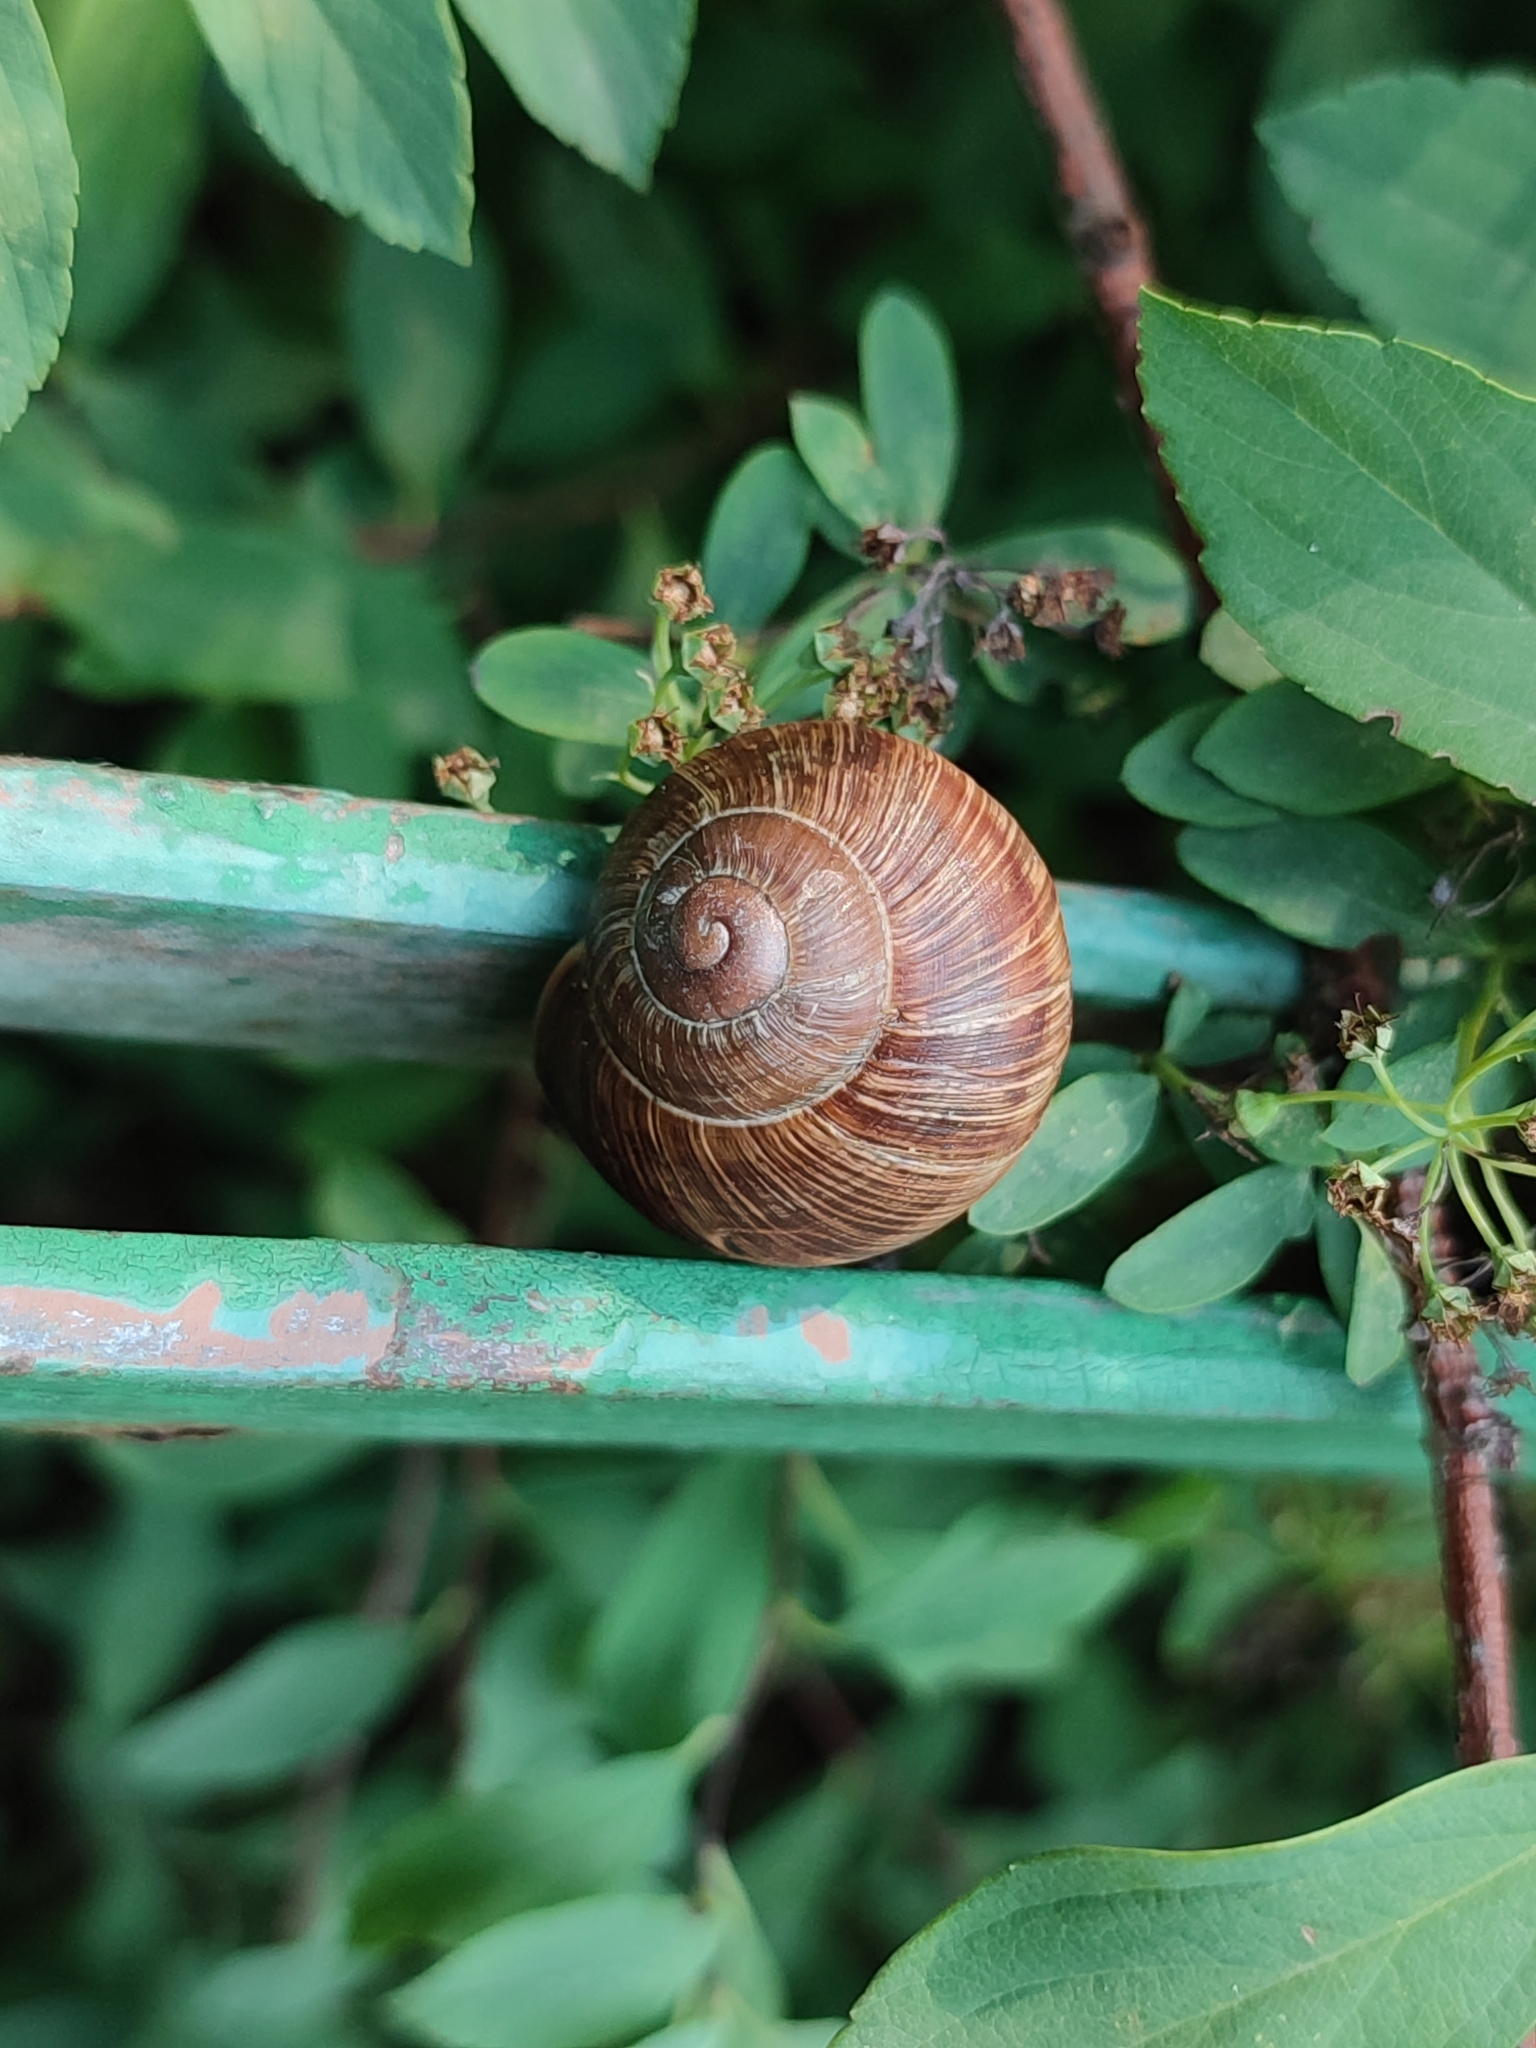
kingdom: Animalia
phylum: Mollusca
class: Gastropoda
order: Stylommatophora
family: Helicidae
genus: Helix
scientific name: Helix pomatia
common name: Roman snail
